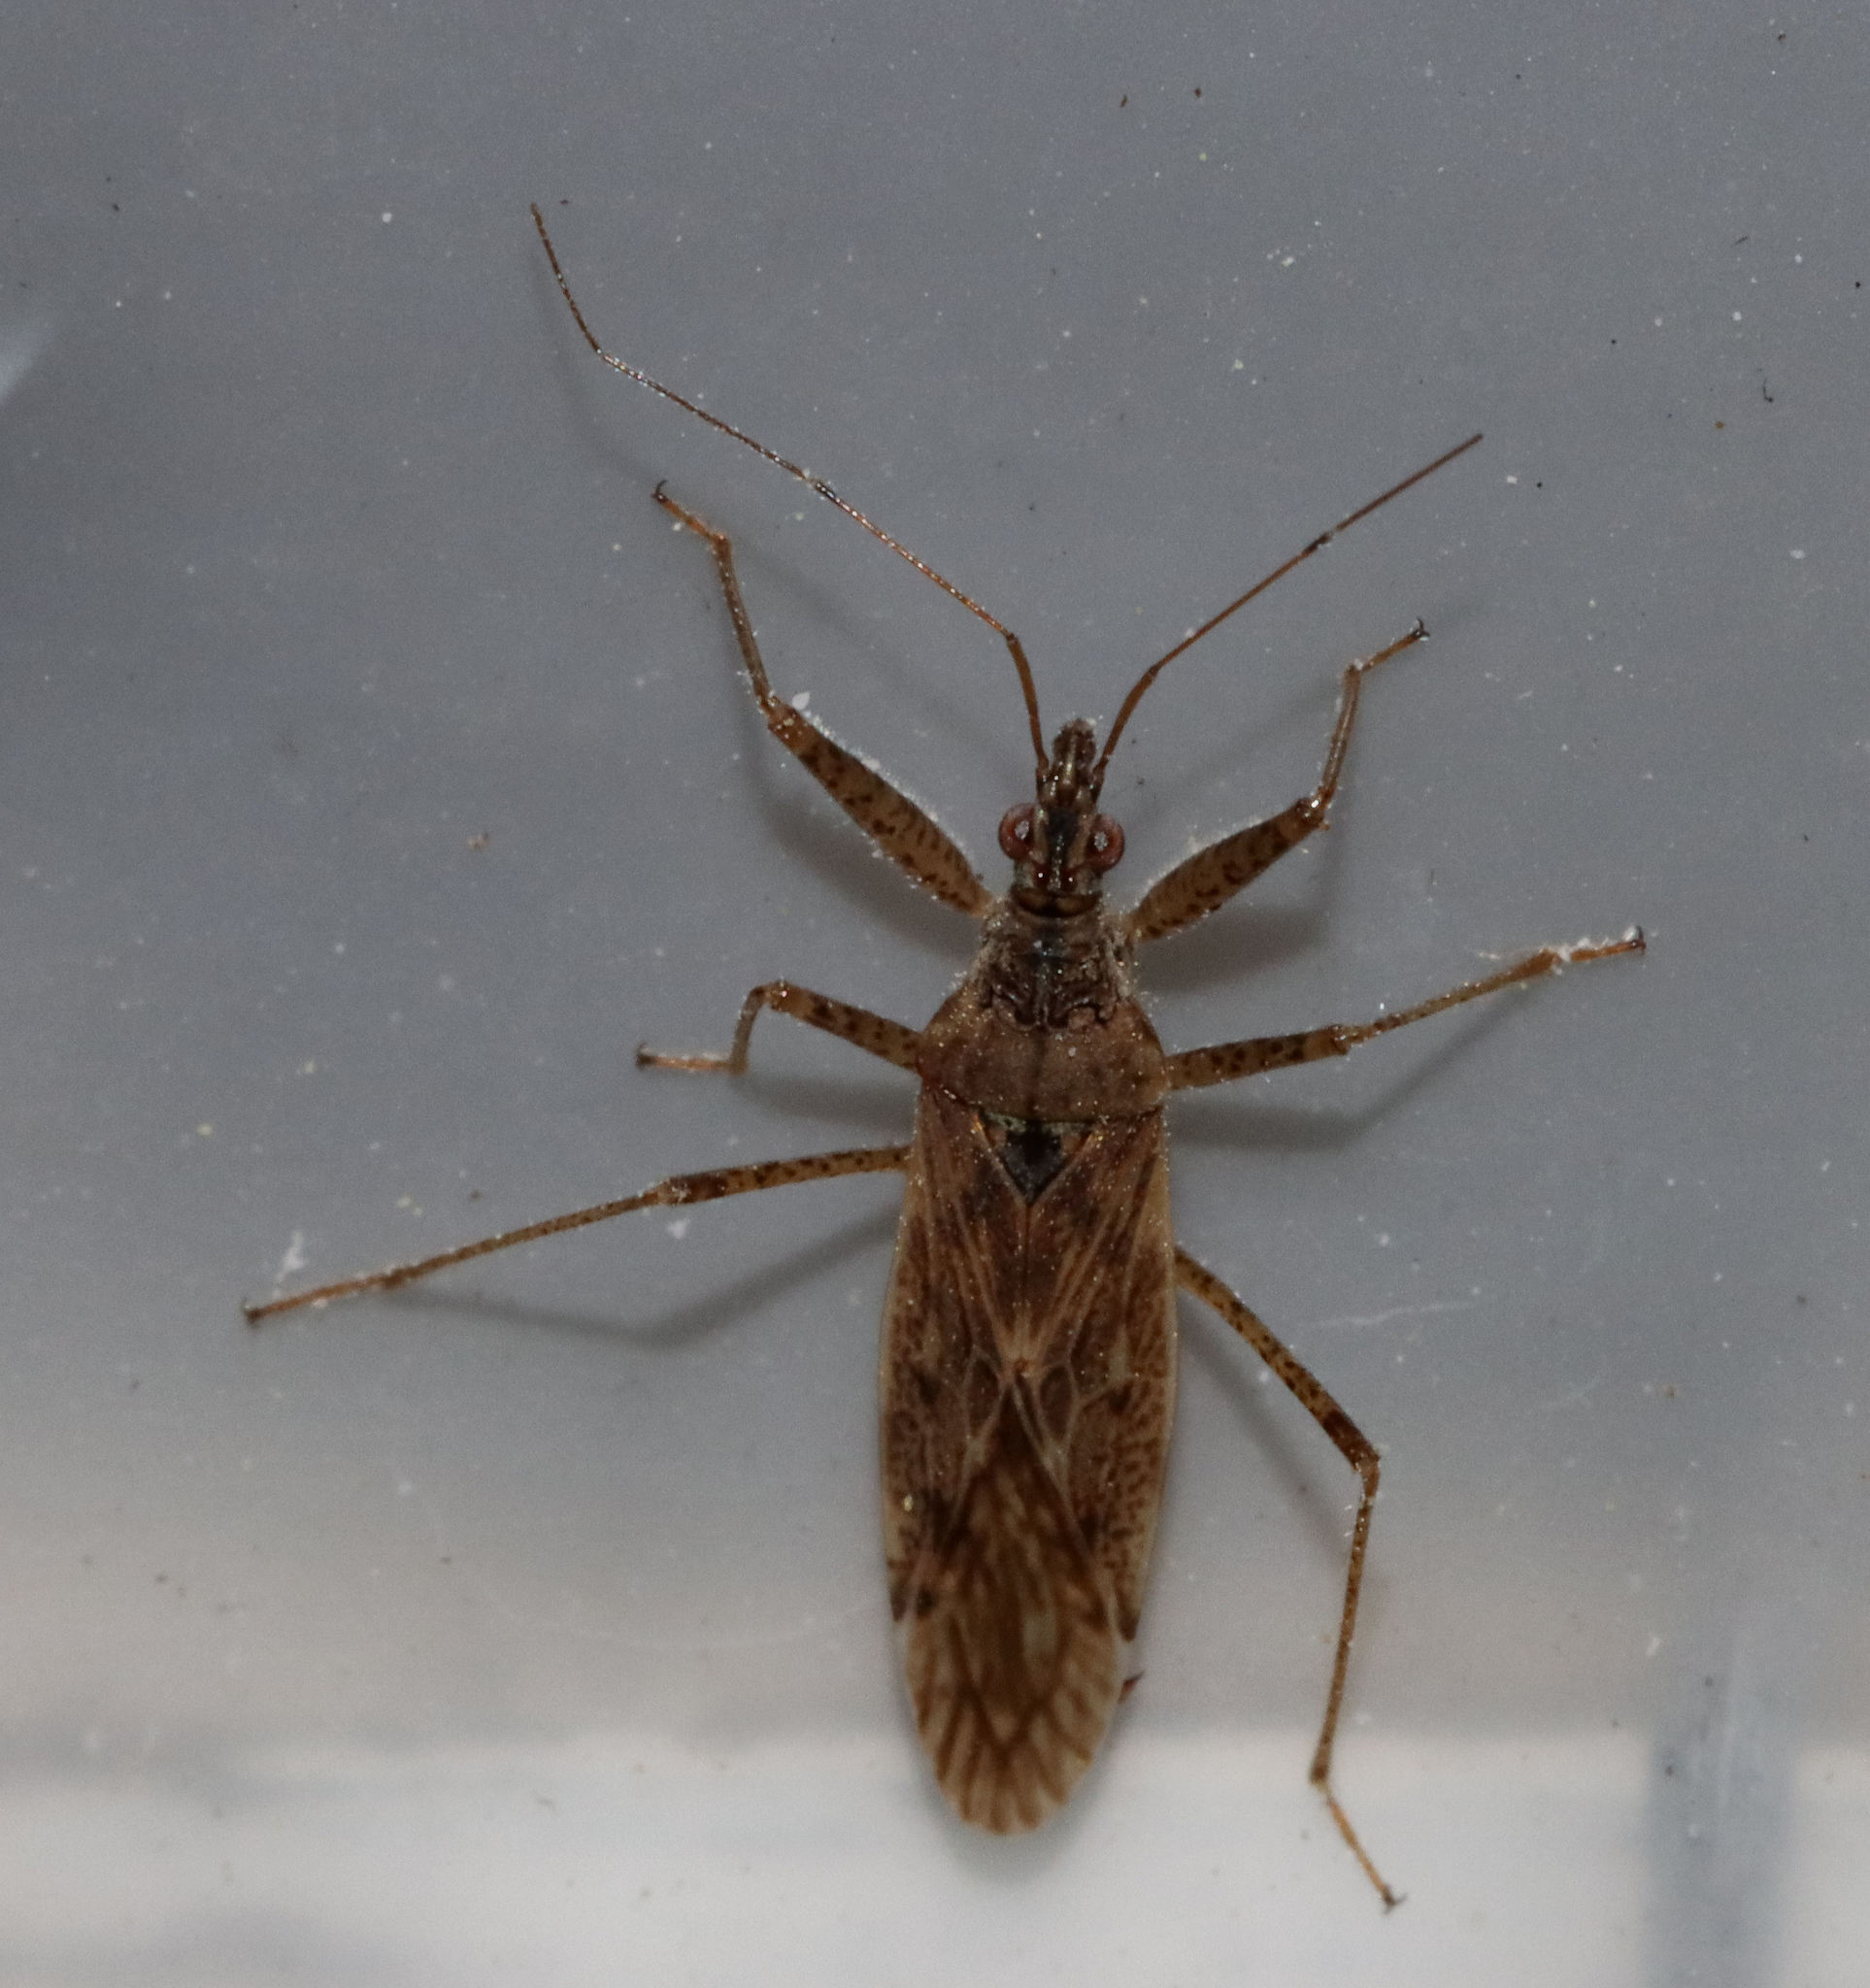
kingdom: Animalia
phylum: Arthropoda
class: Insecta
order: Hemiptera
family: Nabidae
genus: Nabis
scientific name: Nabis roseipennis
